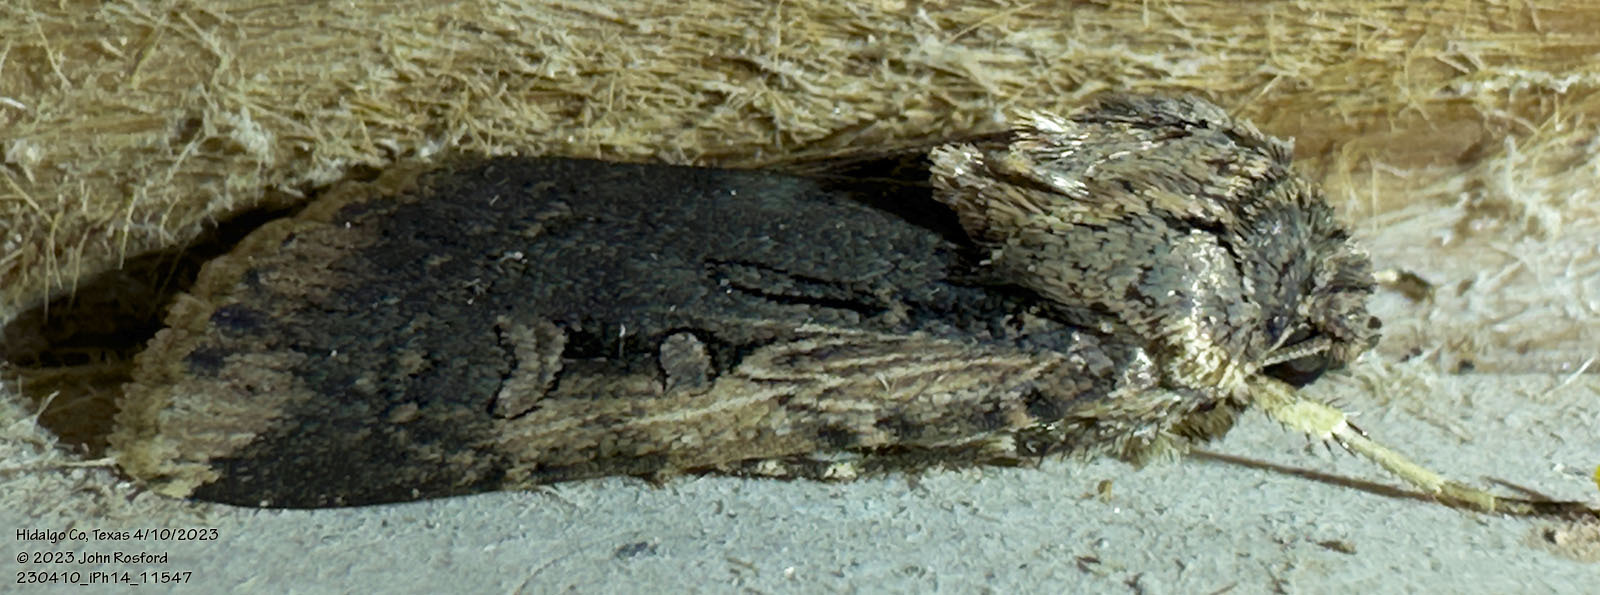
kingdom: Animalia
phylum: Arthropoda
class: Insecta
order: Lepidoptera
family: Noctuidae
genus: Feltia
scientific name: Feltia subterranea
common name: Granulate cutworm
